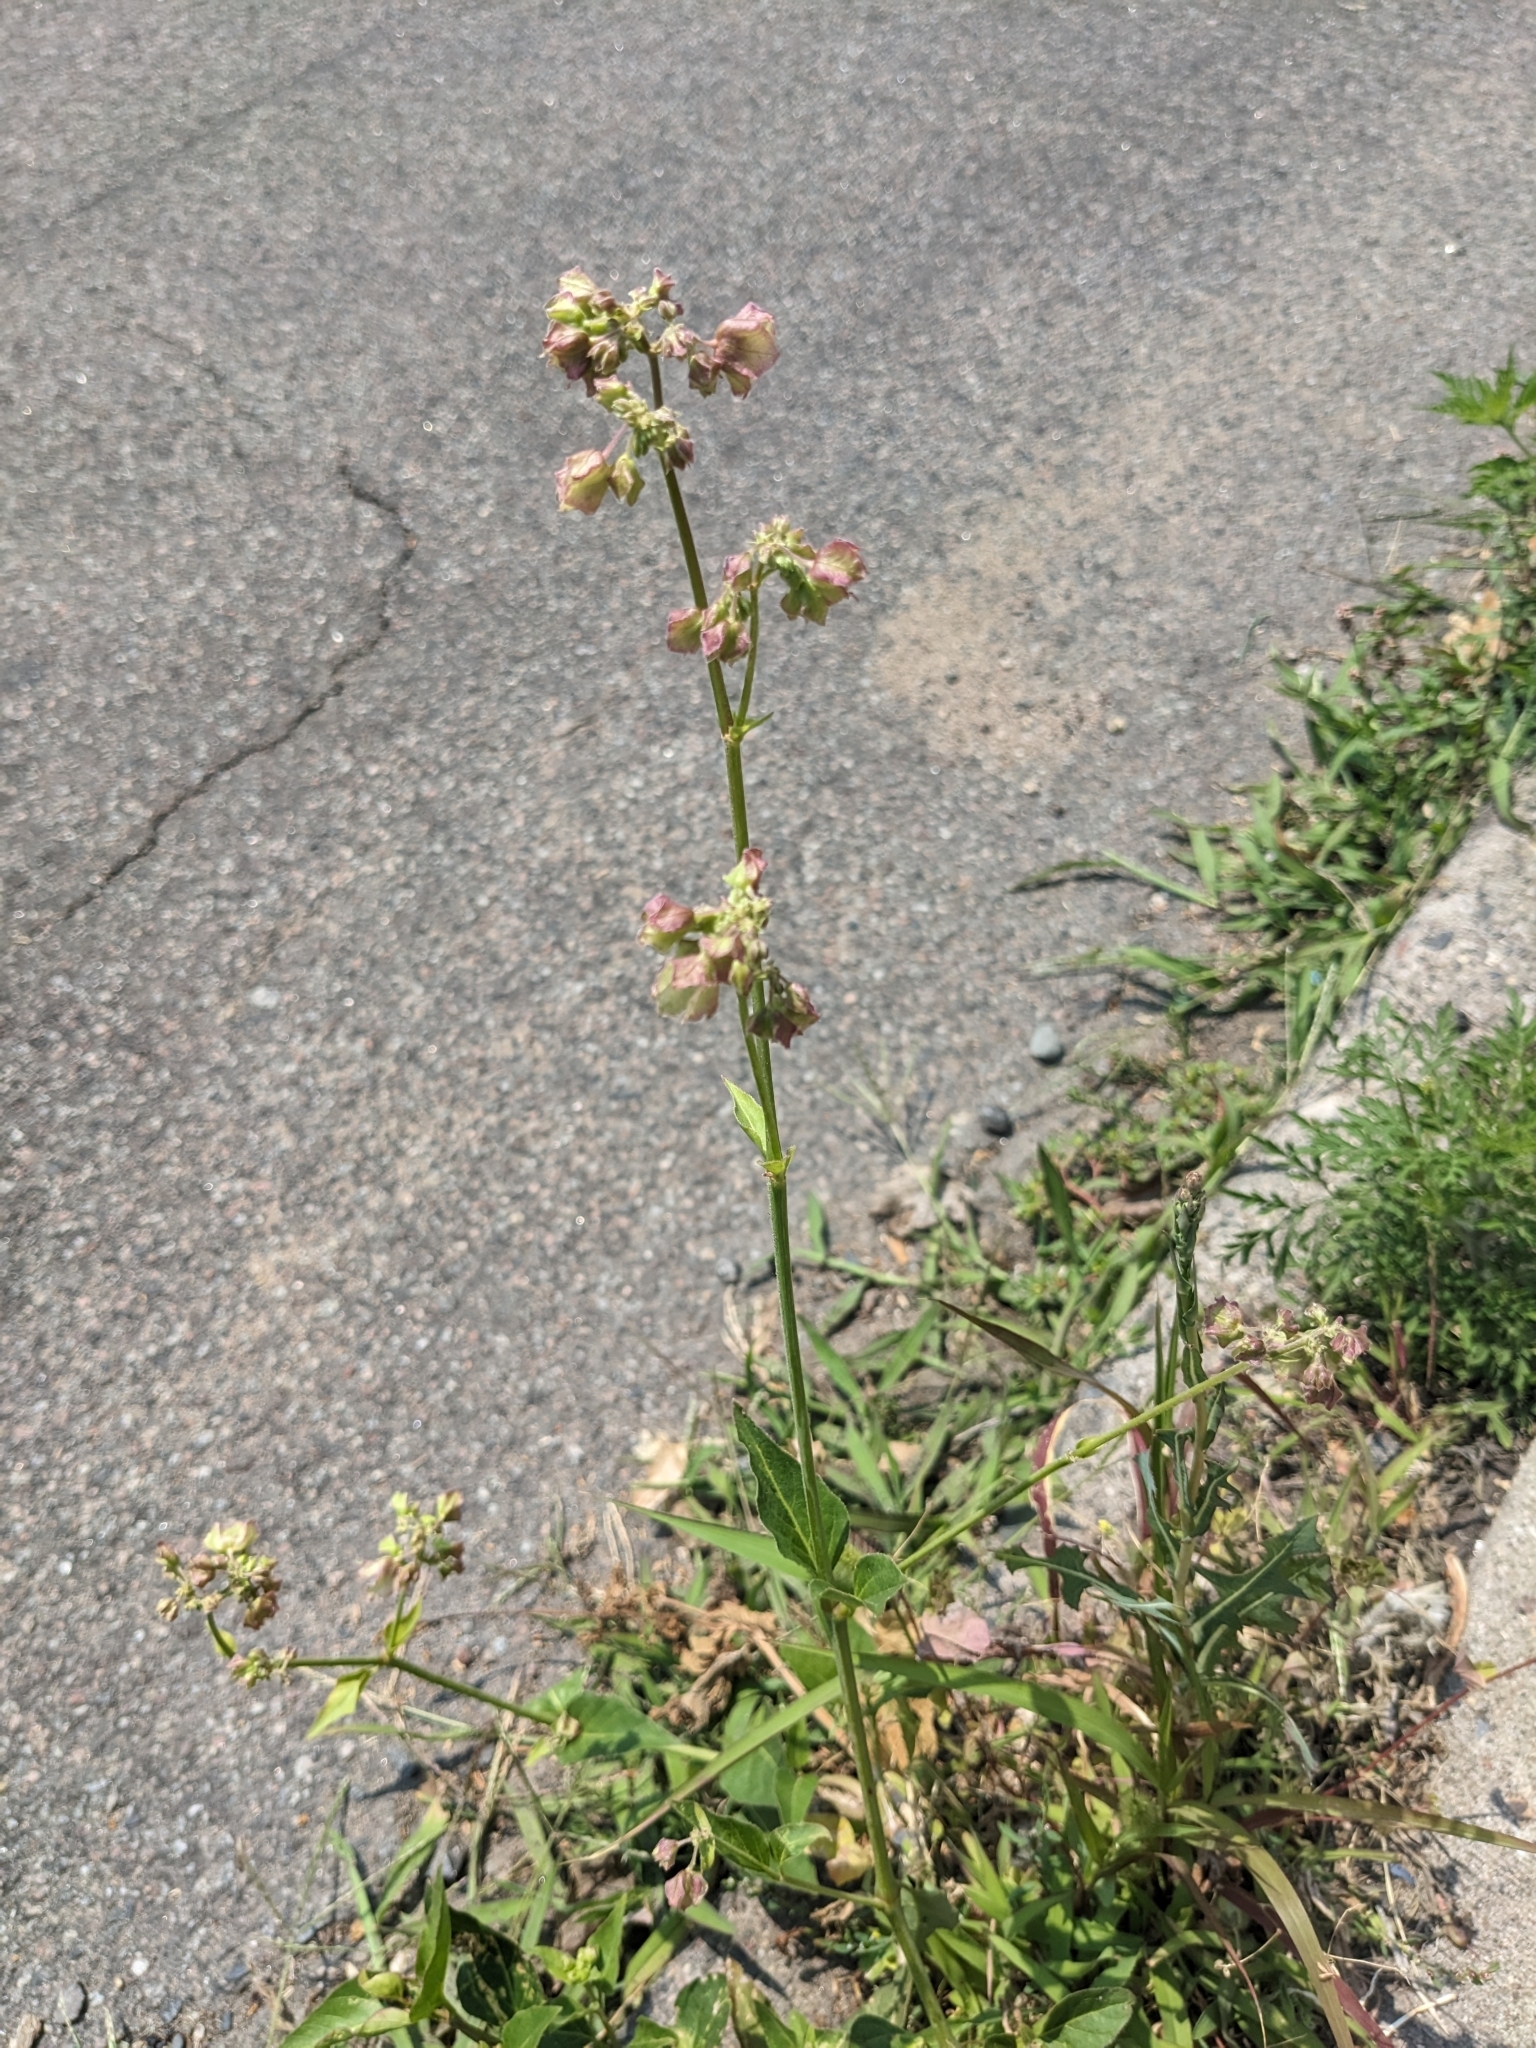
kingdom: Plantae
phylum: Tracheophyta
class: Magnoliopsida
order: Caryophyllales
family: Nyctaginaceae
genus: Mirabilis
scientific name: Mirabilis nyctaginea
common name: Umbrella wort
